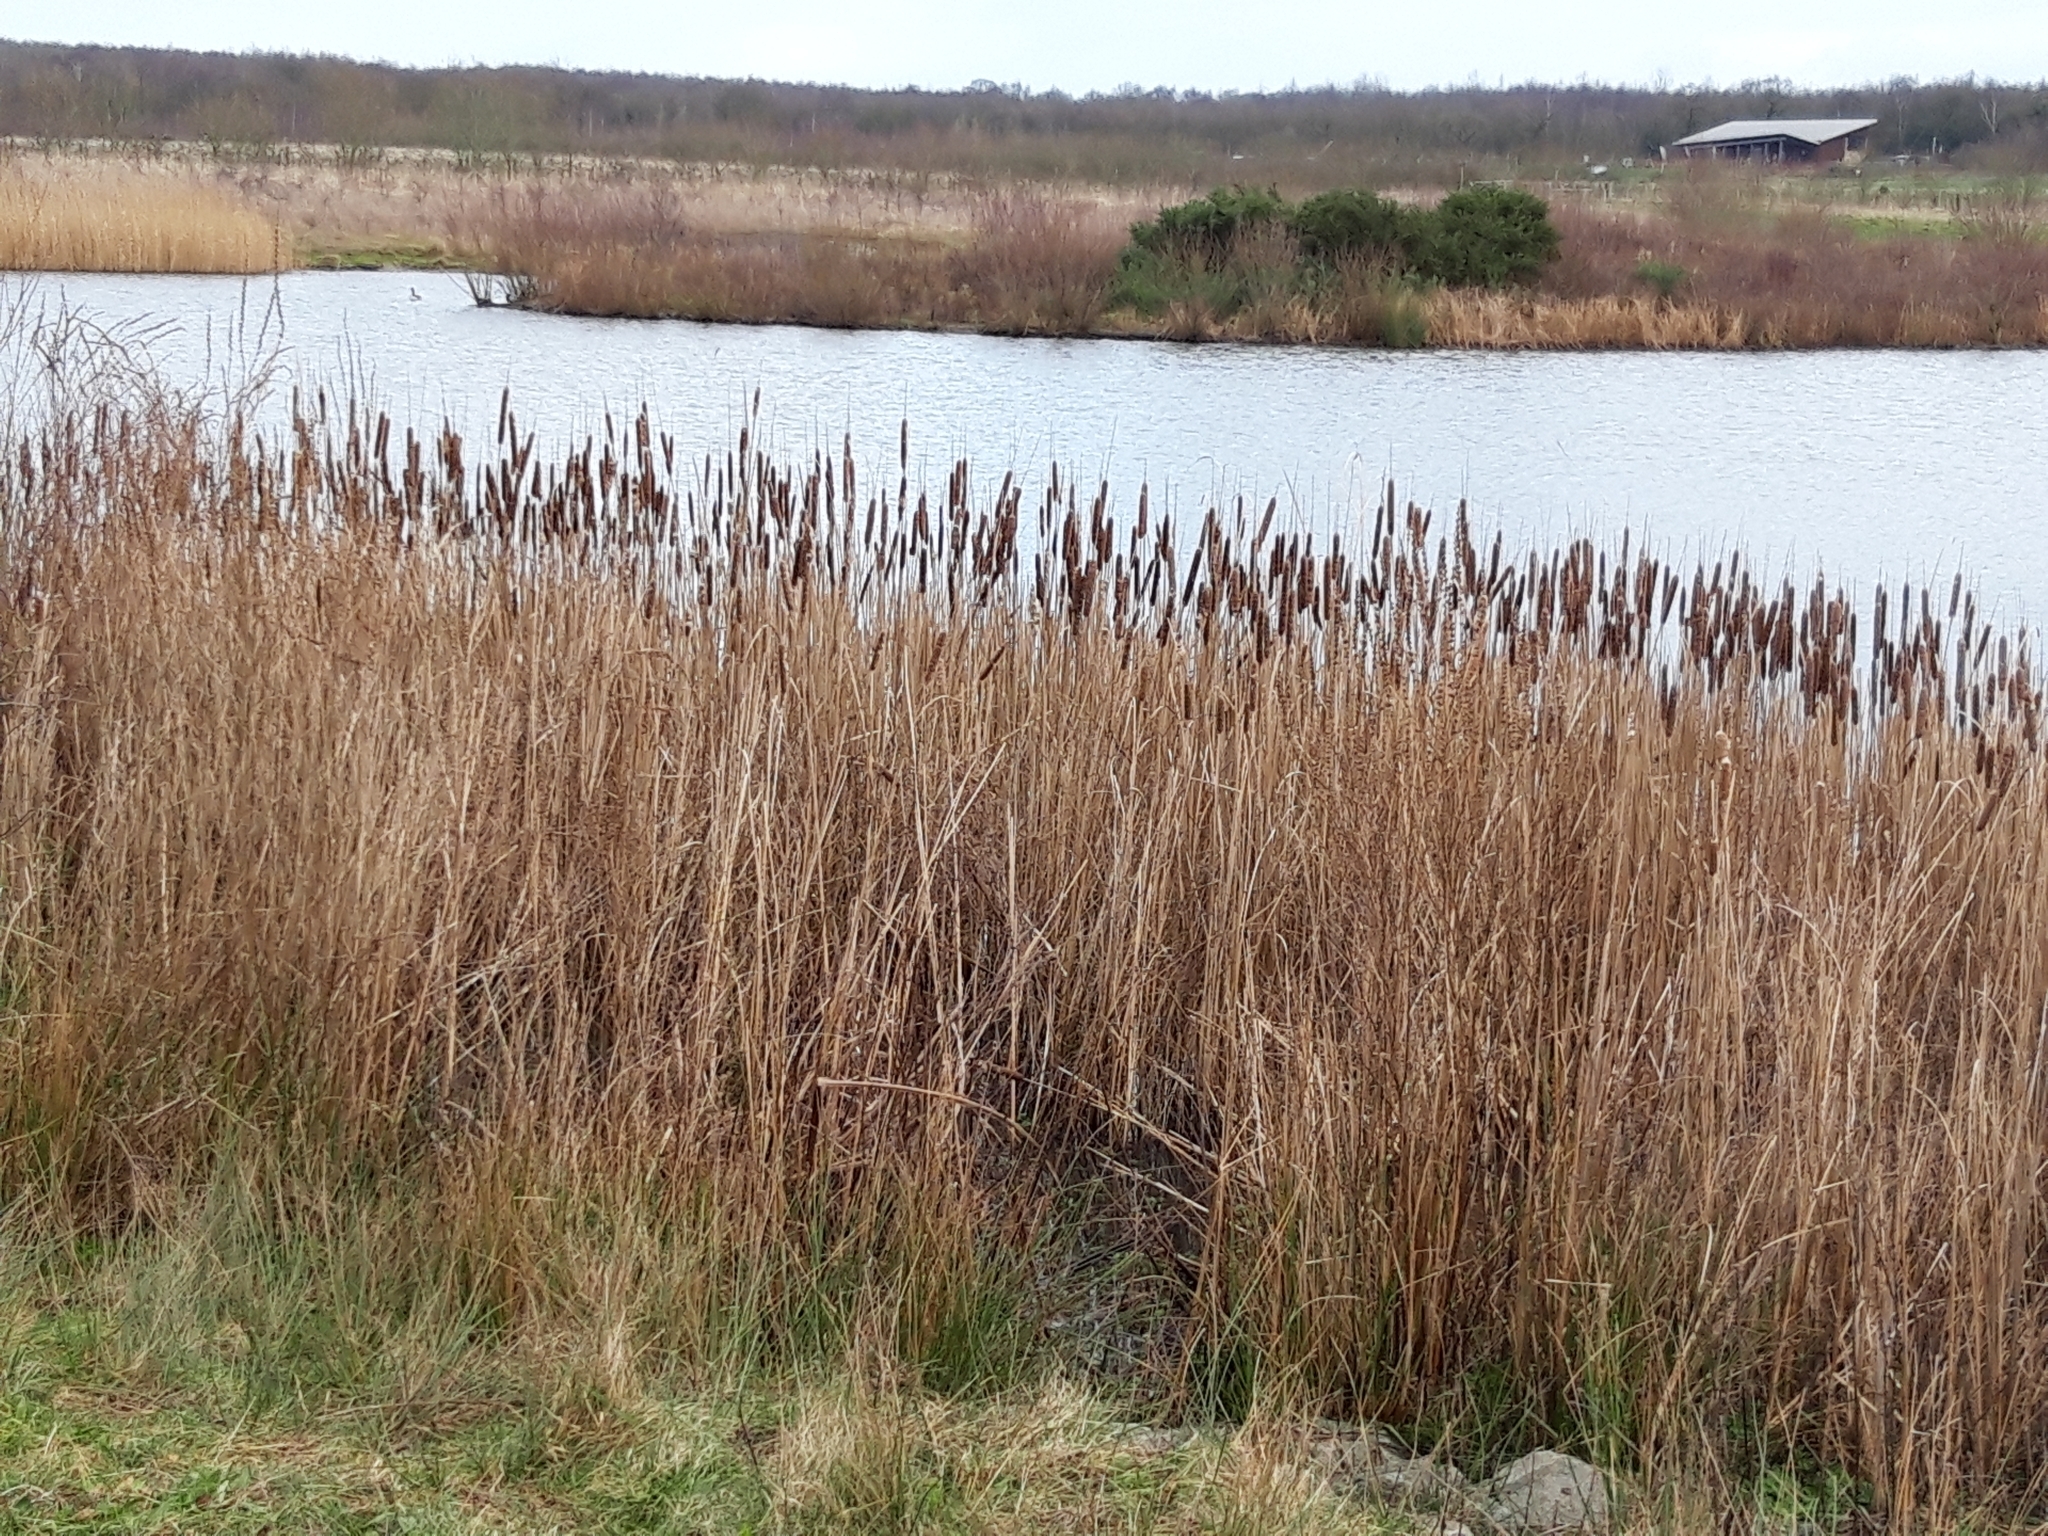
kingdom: Plantae
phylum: Tracheophyta
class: Liliopsida
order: Poales
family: Typhaceae
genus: Typha
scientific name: Typha latifolia
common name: Broadleaf cattail
